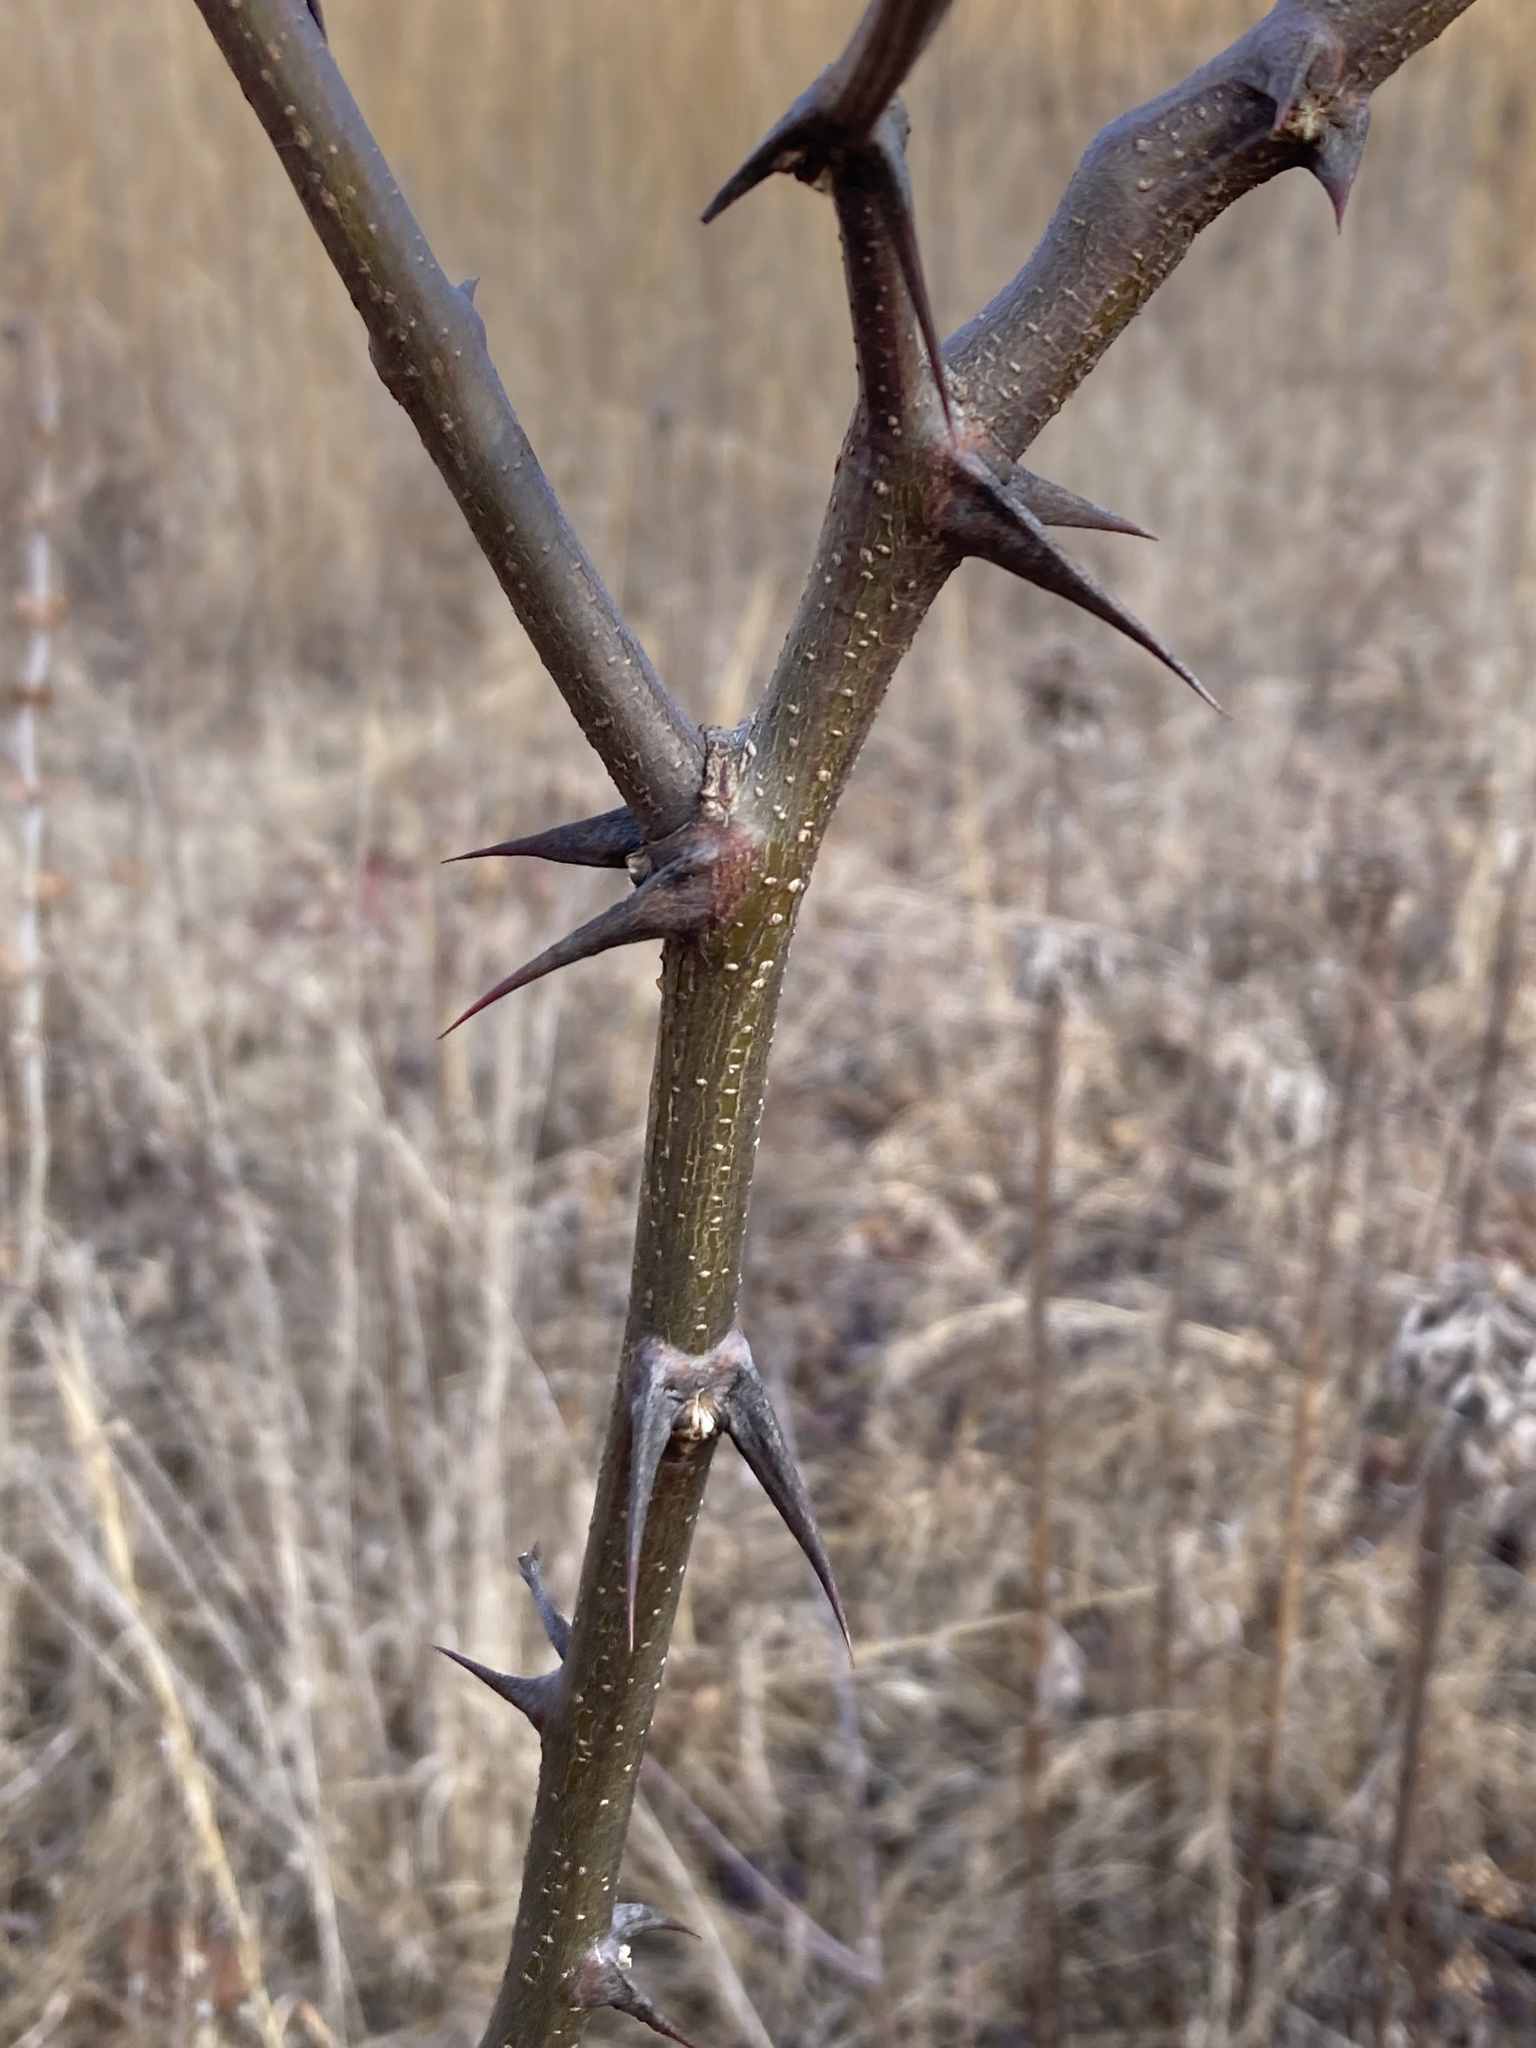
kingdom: Plantae
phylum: Tracheophyta
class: Magnoliopsida
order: Fabales
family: Fabaceae
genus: Robinia
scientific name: Robinia pseudoacacia
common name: Black locust
